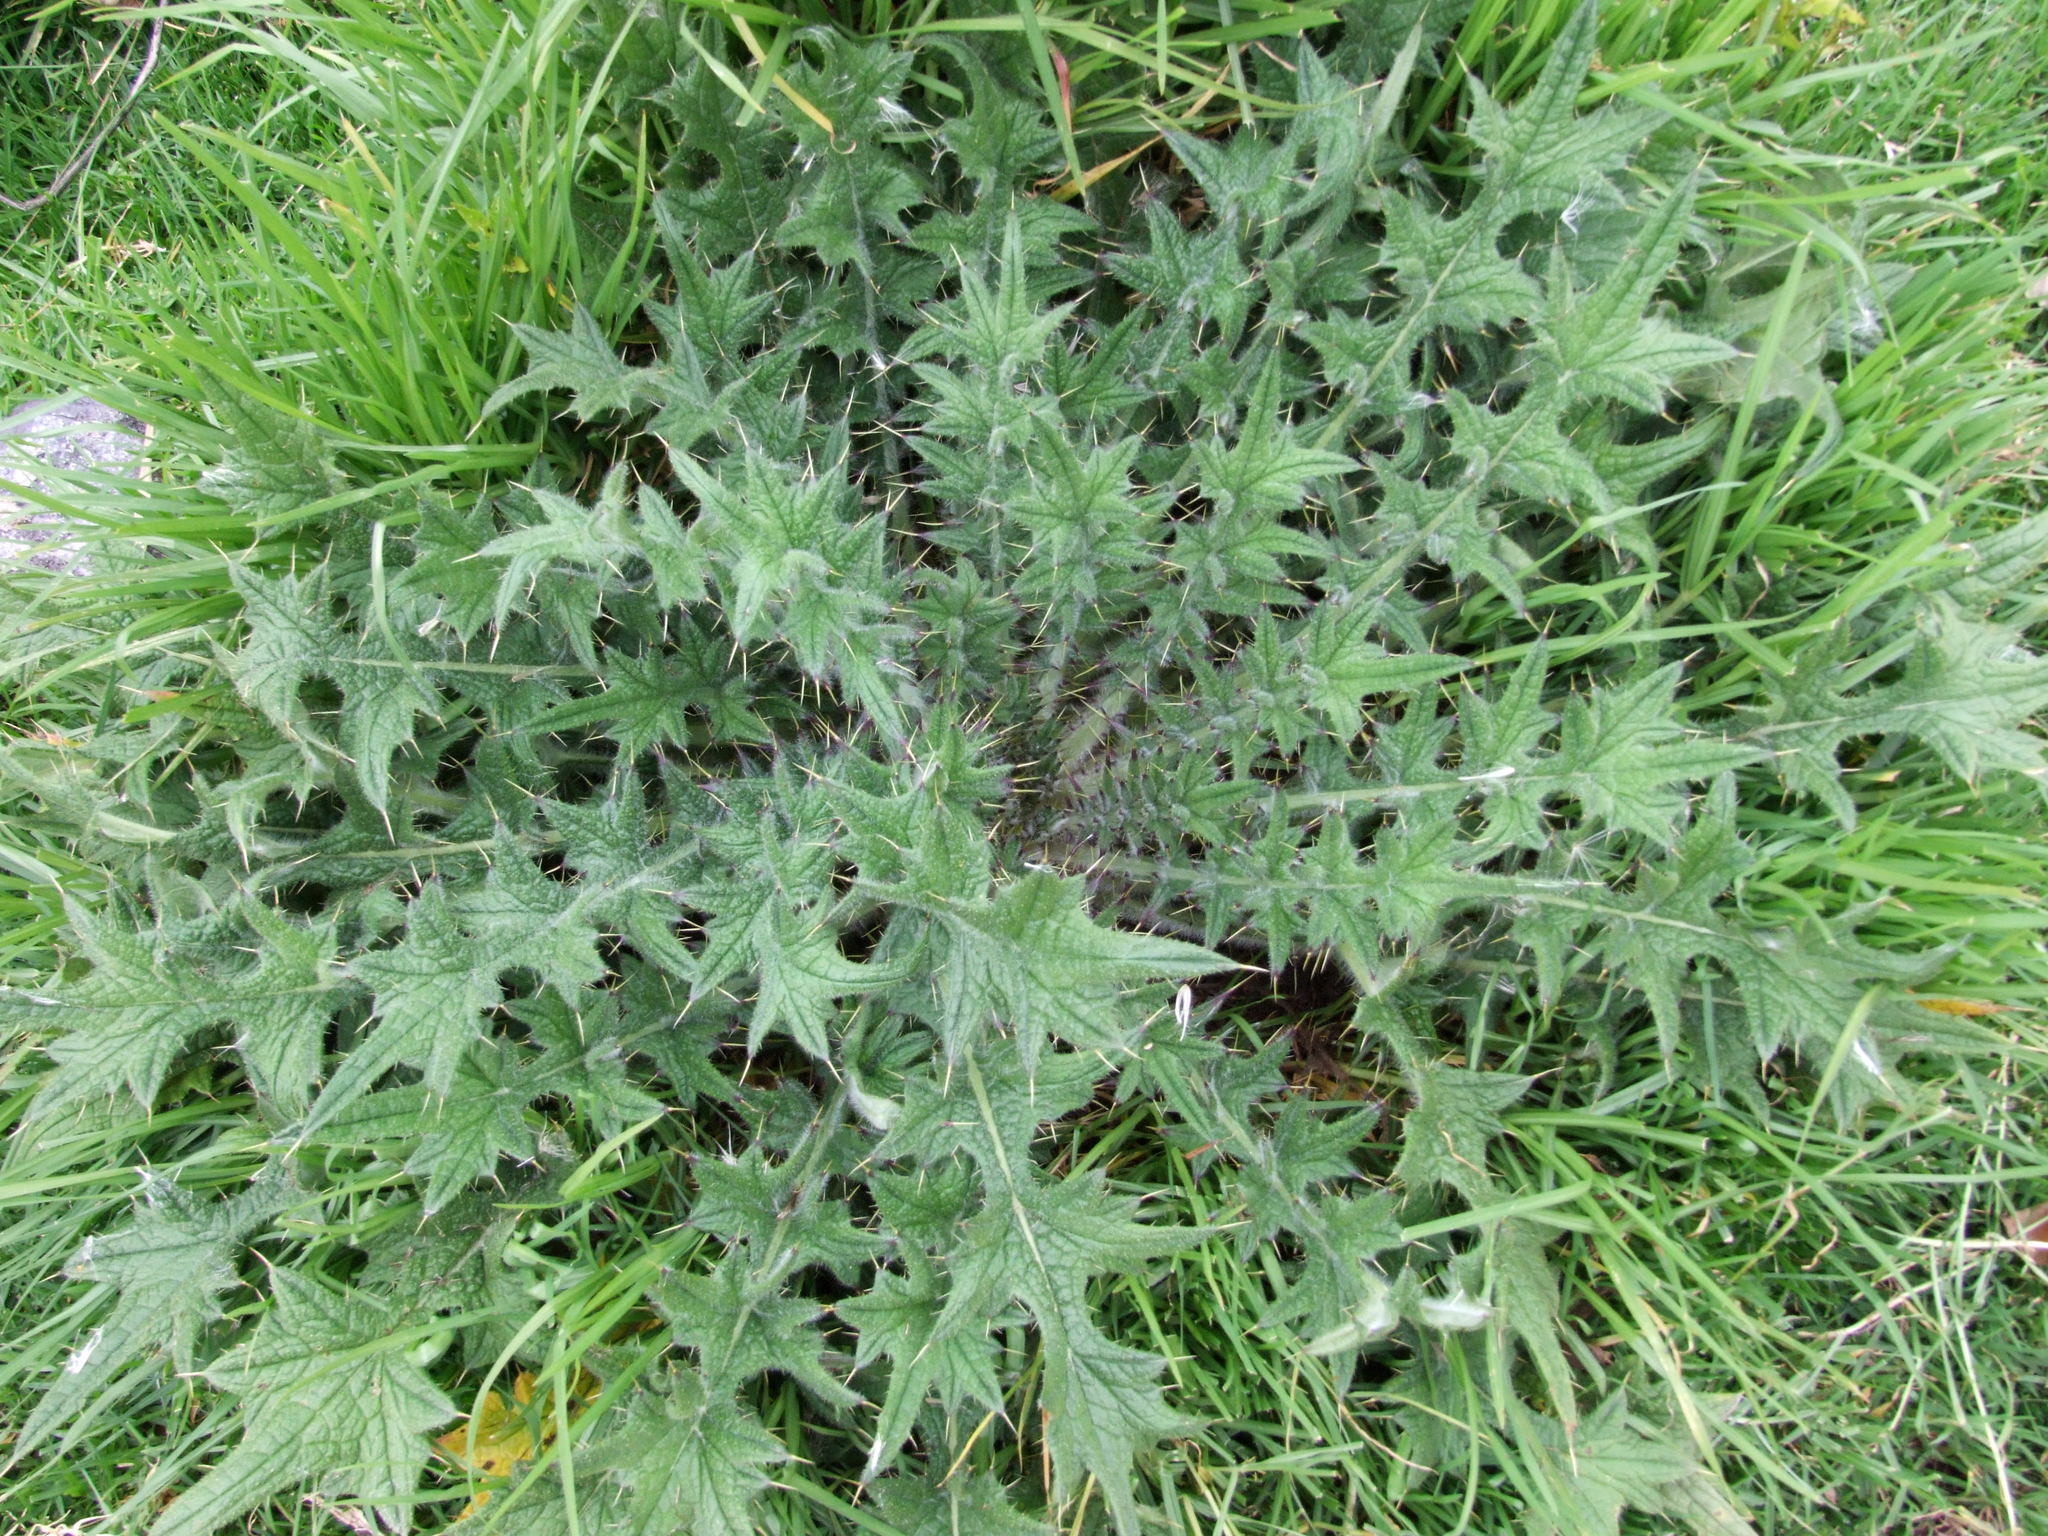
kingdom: Plantae
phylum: Tracheophyta
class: Magnoliopsida
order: Asterales
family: Asteraceae
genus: Cirsium
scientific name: Cirsium vulgare
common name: Bull thistle
